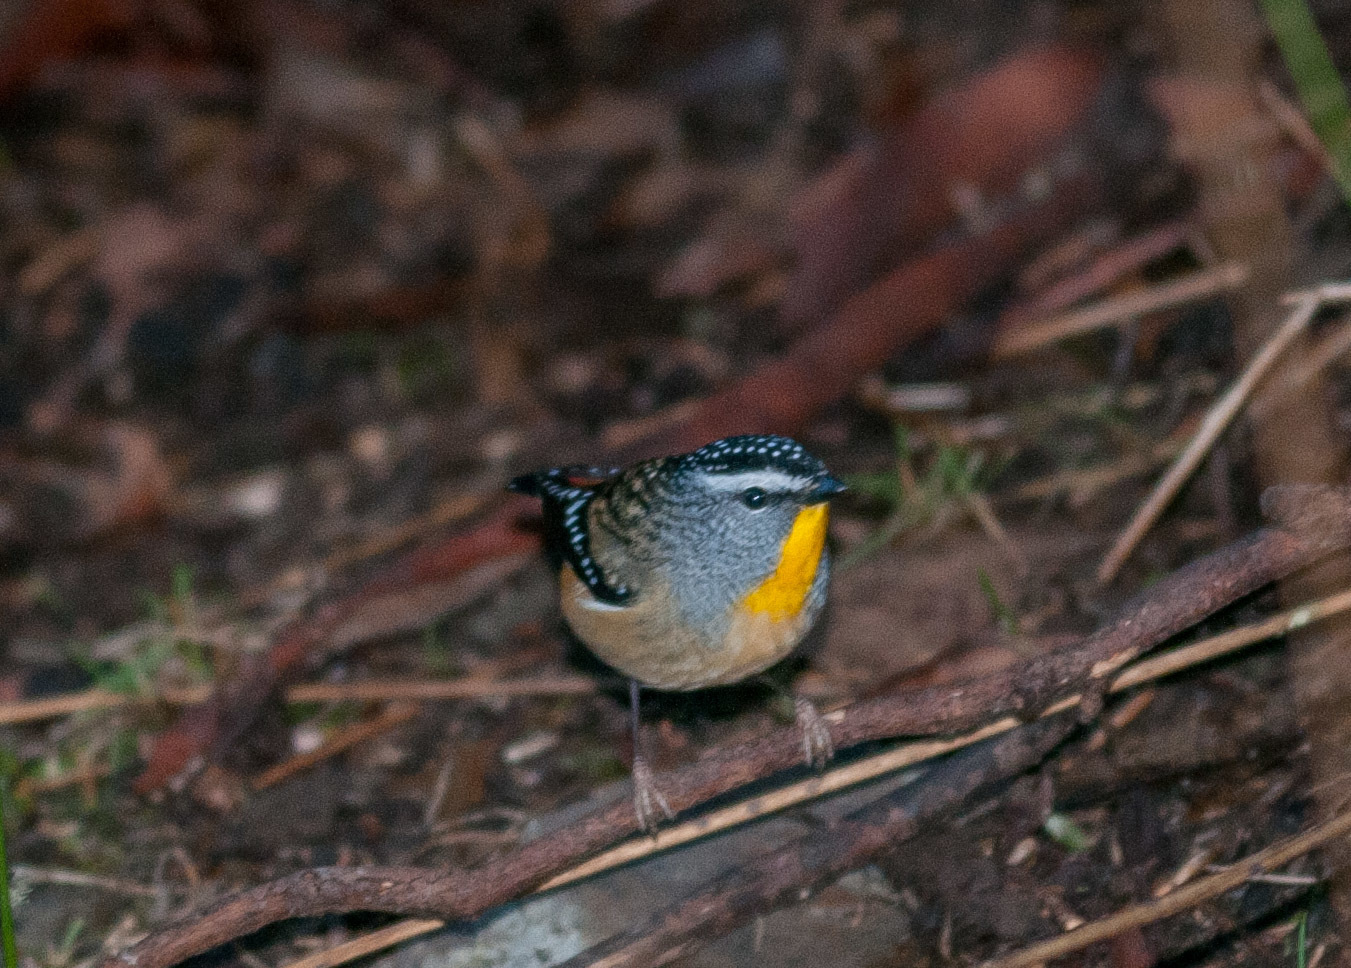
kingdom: Animalia
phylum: Chordata
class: Aves
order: Passeriformes
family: Pardalotidae
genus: Pardalotus
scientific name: Pardalotus punctatus
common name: Spotted pardalote
